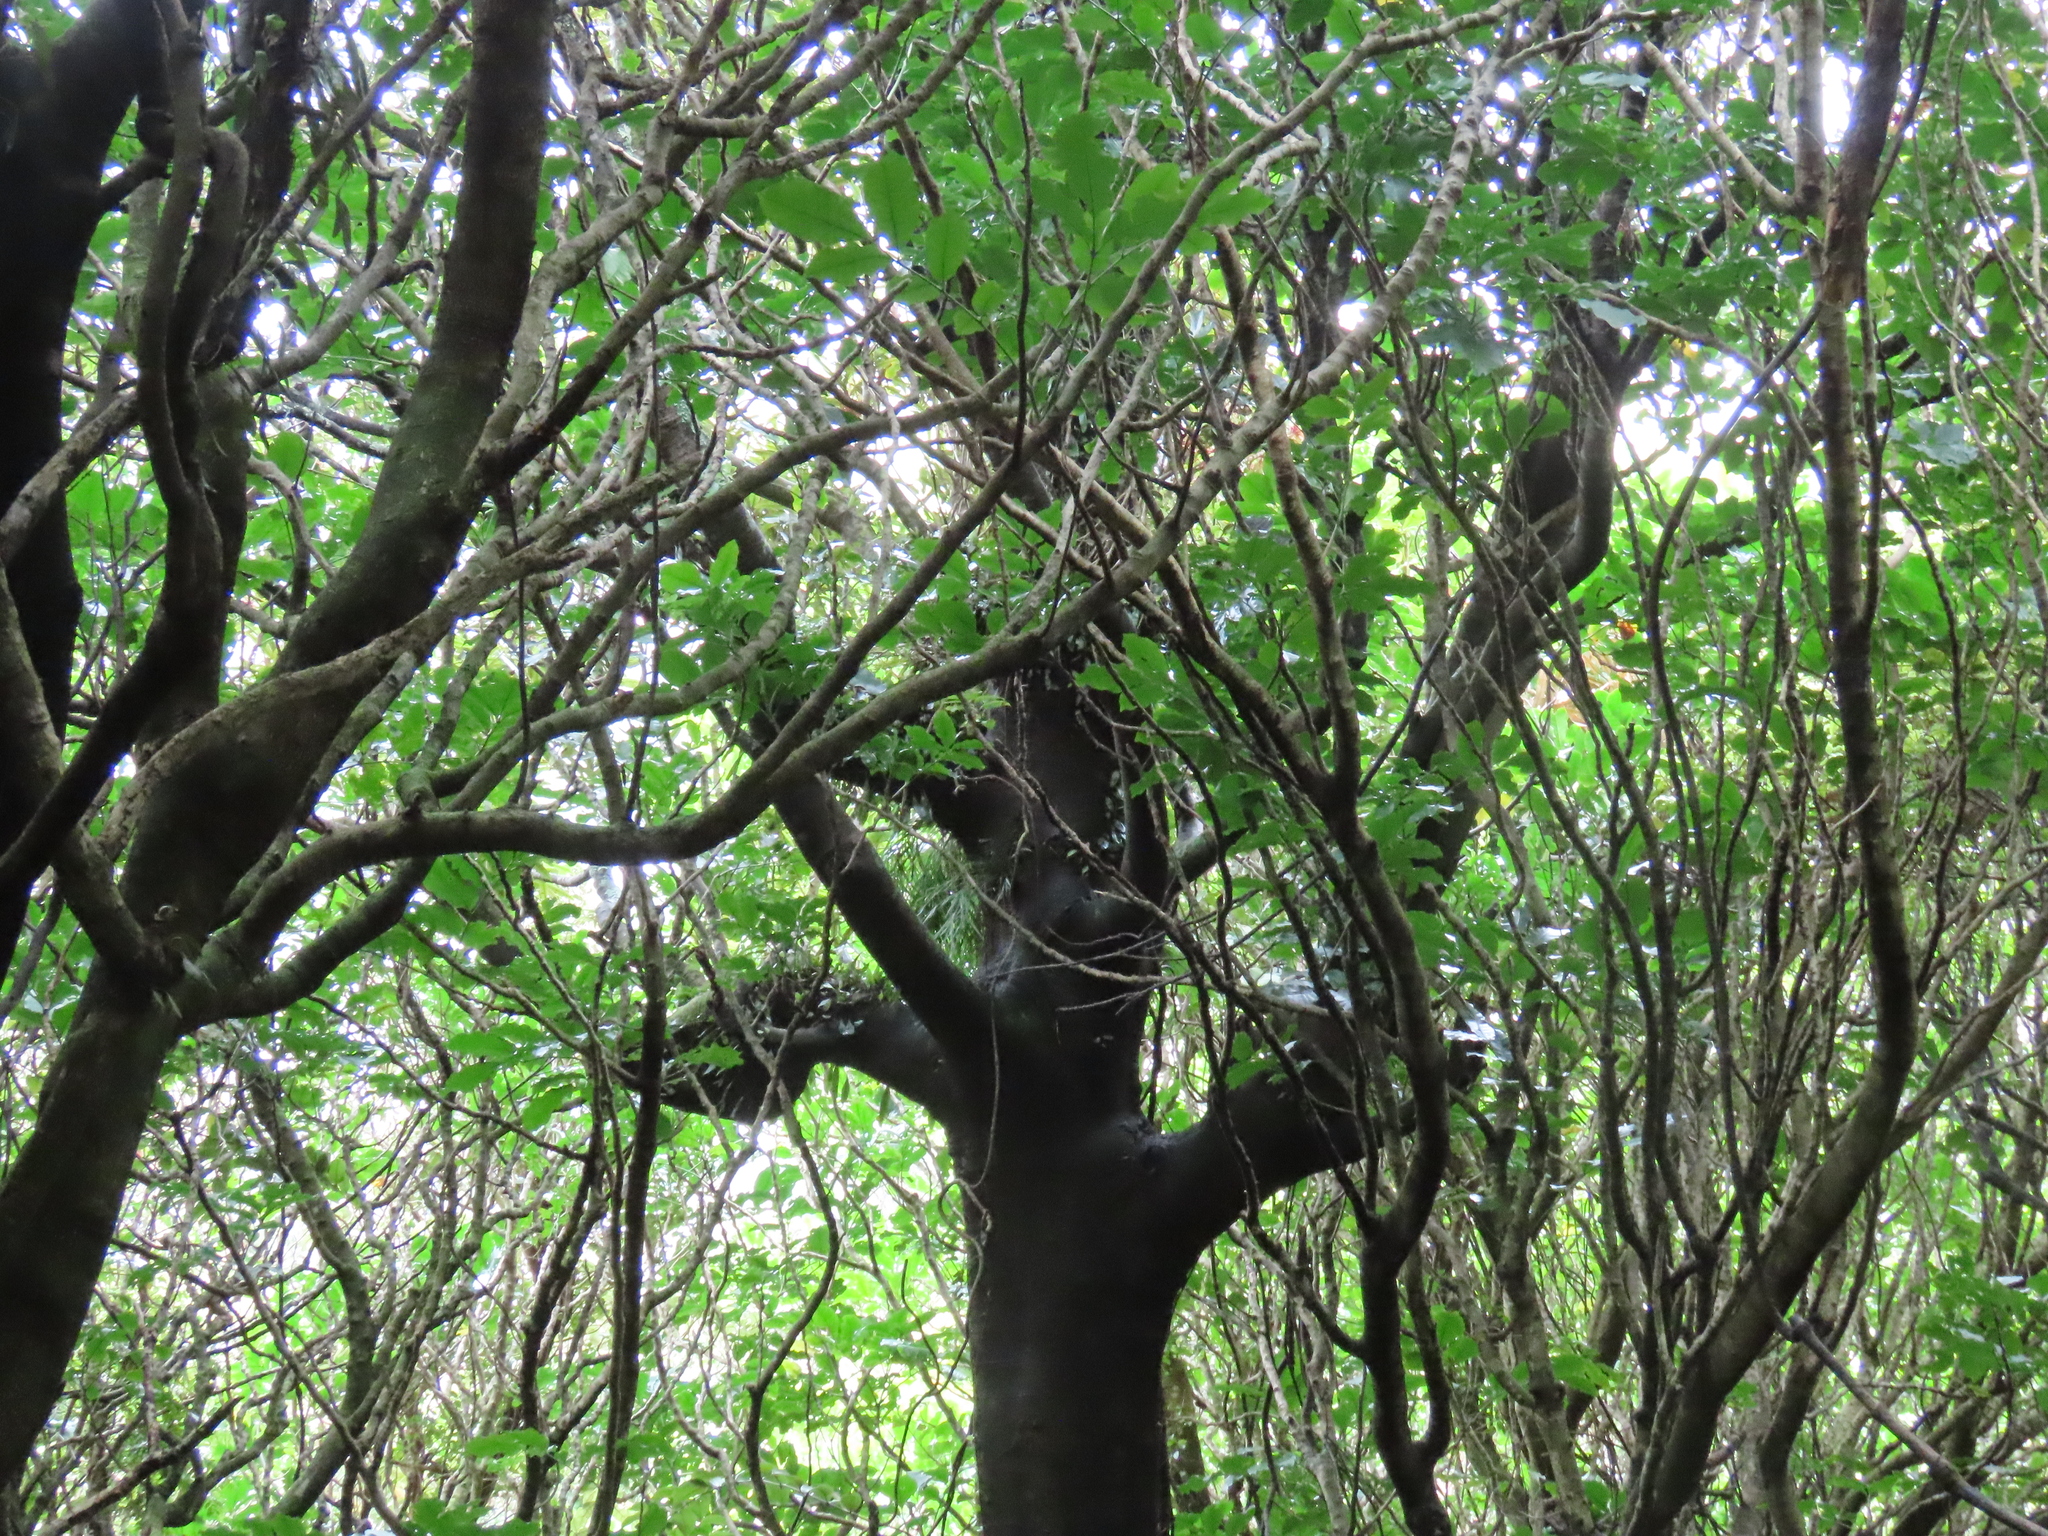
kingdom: Plantae
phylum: Tracheophyta
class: Magnoliopsida
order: Proteales
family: Proteaceae
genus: Knightia
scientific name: Knightia excelsa
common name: New zealand-honeysuckle
